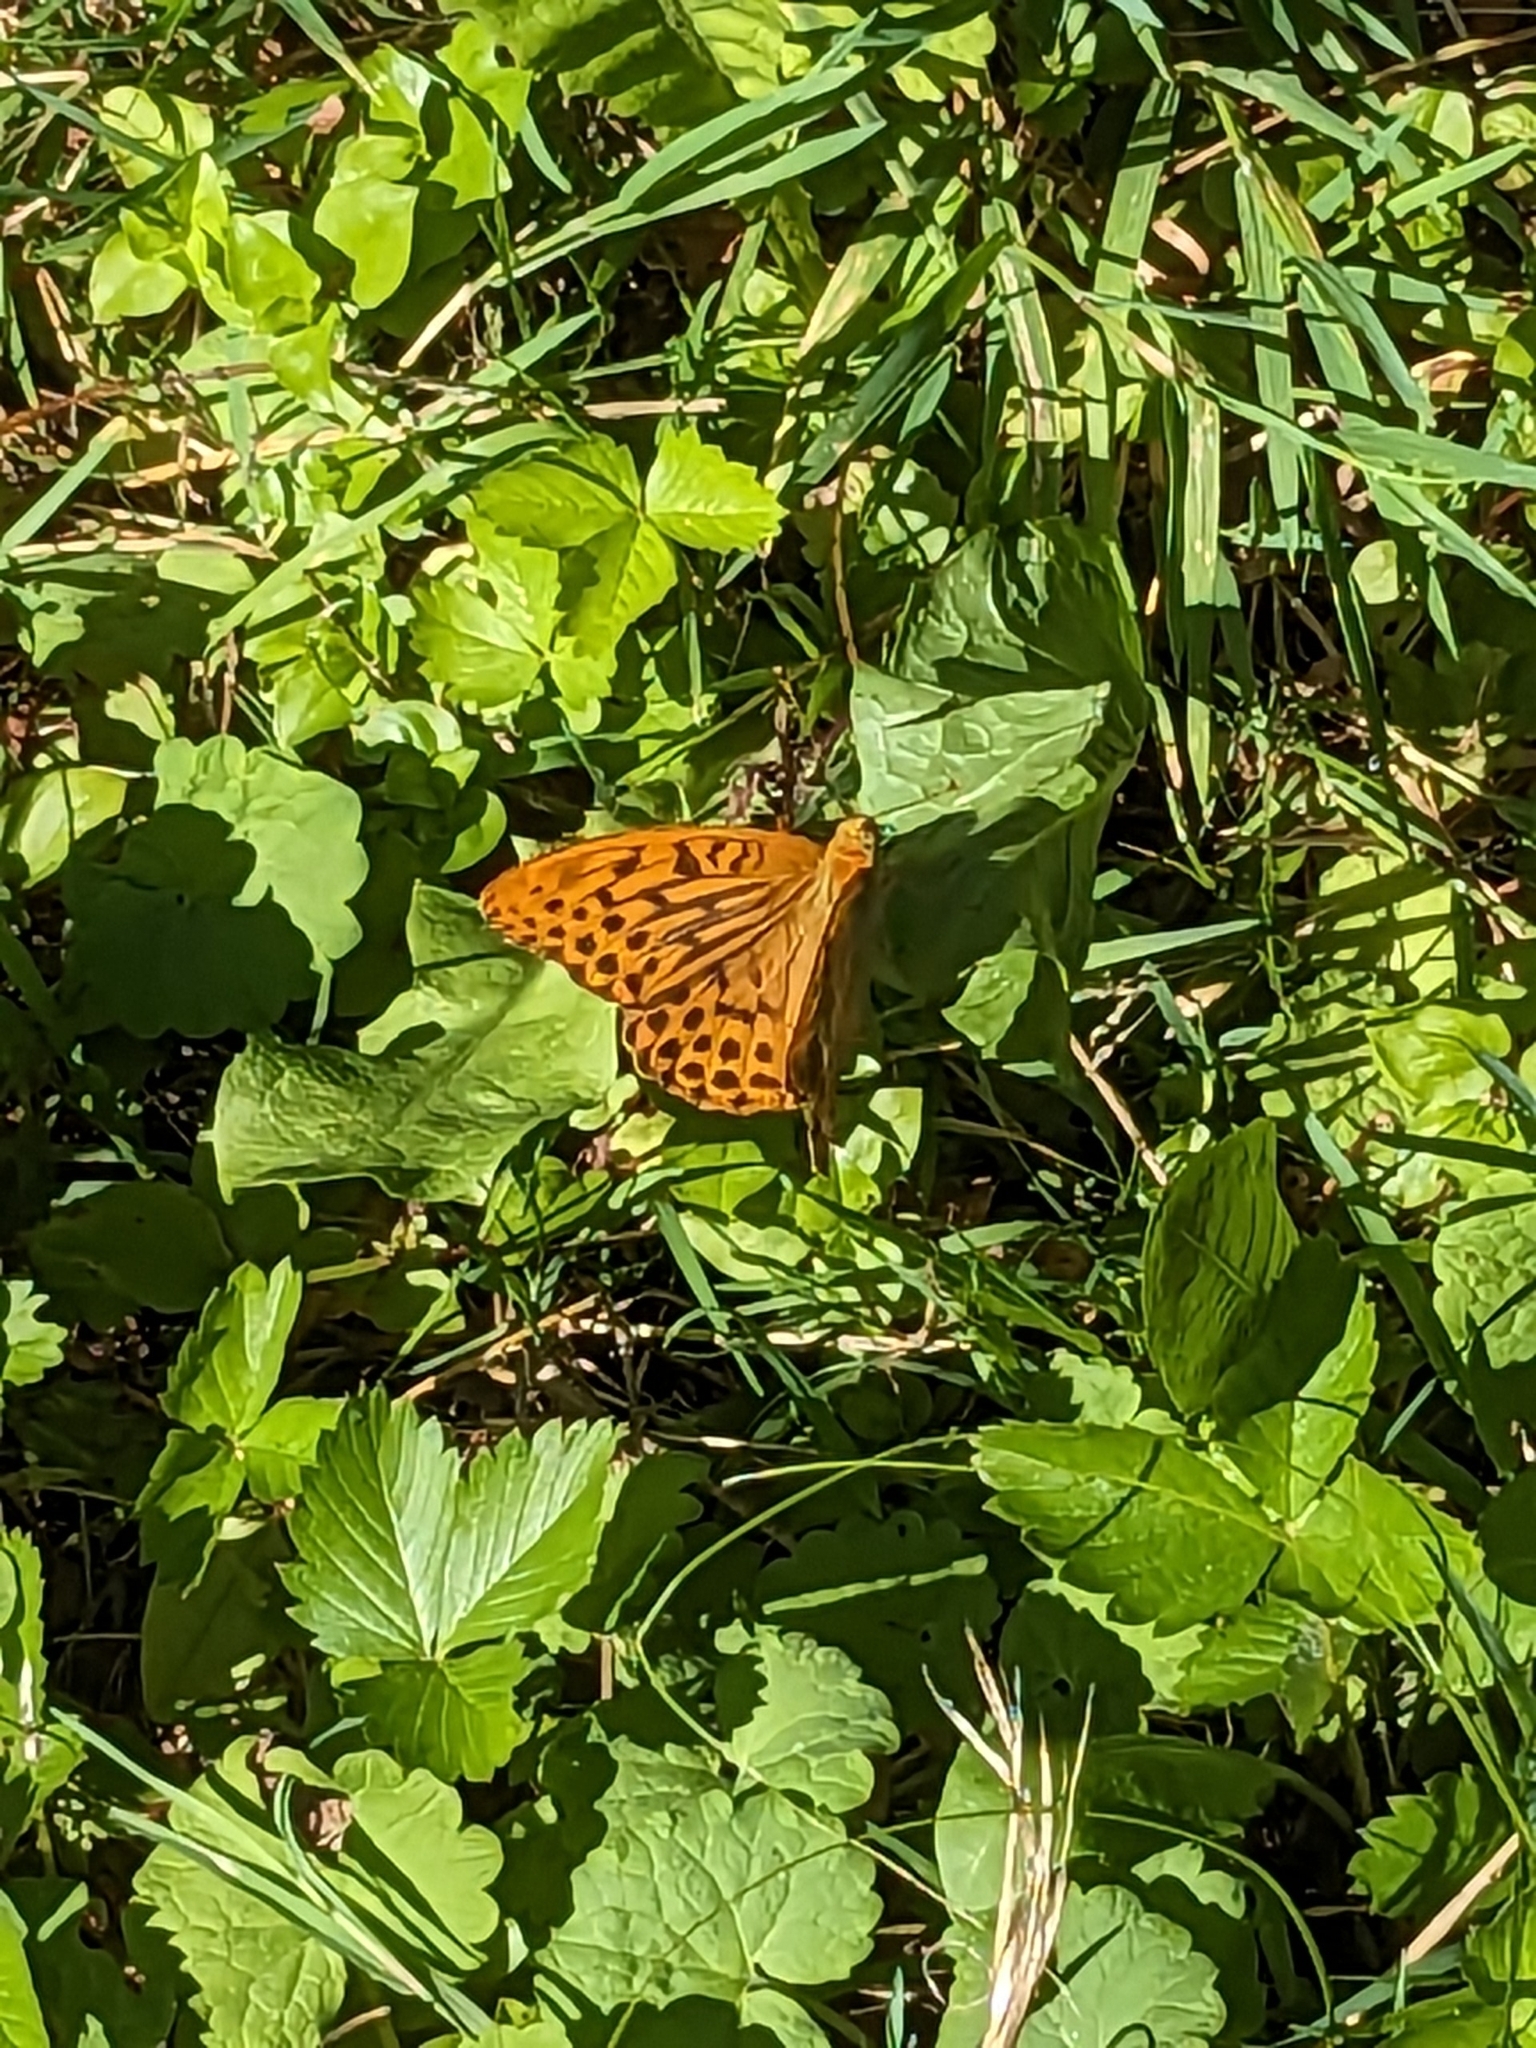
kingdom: Animalia
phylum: Arthropoda
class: Insecta
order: Lepidoptera
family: Nymphalidae
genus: Argynnis
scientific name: Argynnis paphia
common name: Silver-washed fritillary
